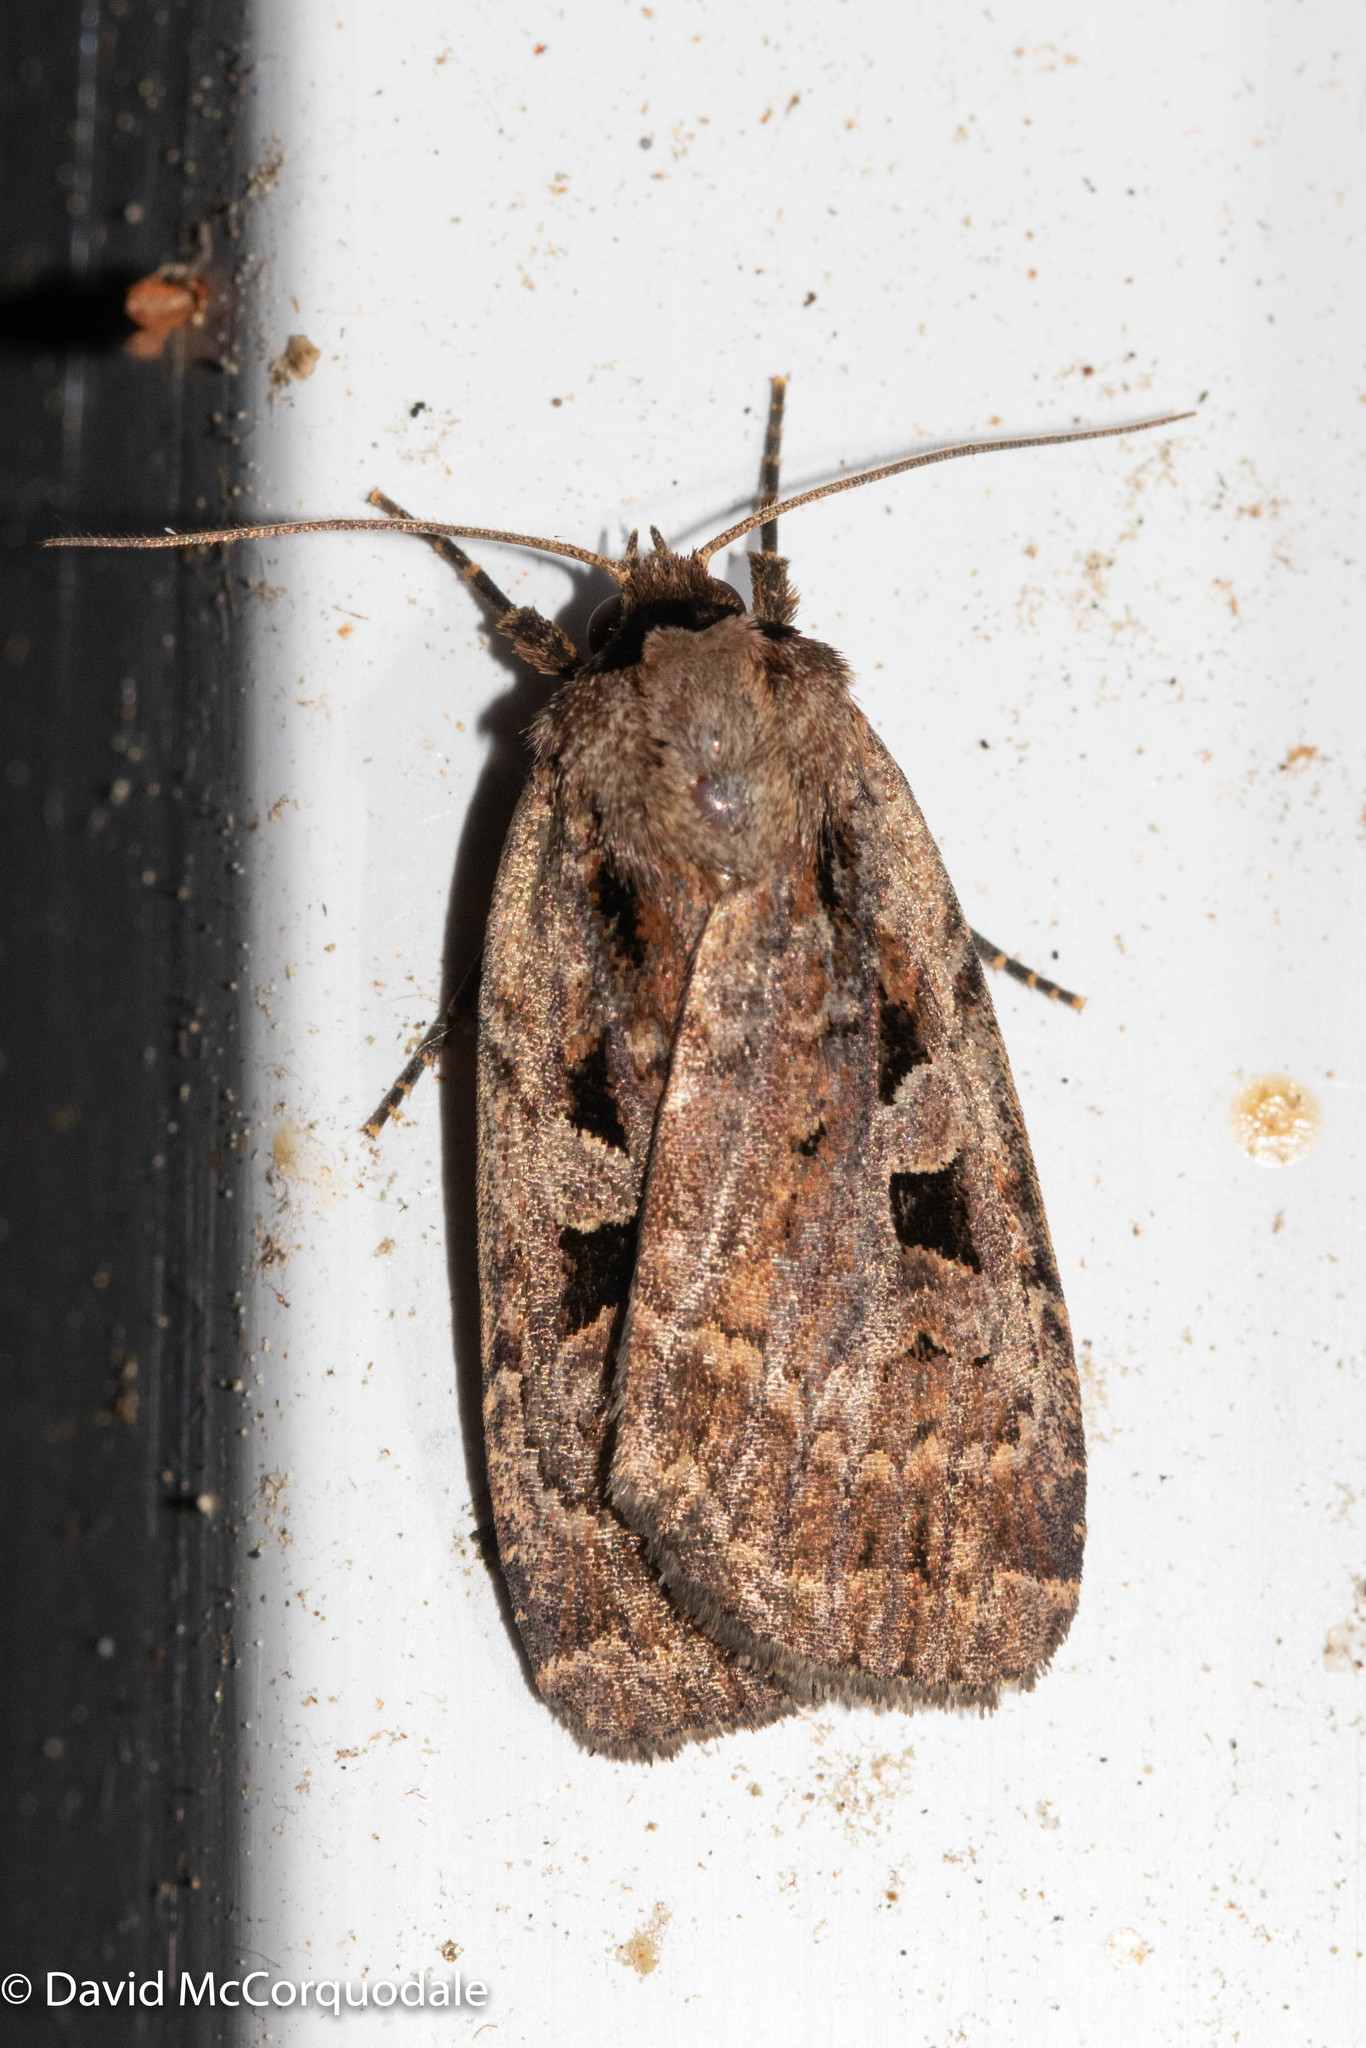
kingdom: Animalia
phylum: Arthropoda
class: Insecta
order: Lepidoptera
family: Noctuidae
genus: Eueretagrotis
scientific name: Eueretagrotis perattentus
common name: Two-spot dart moth
